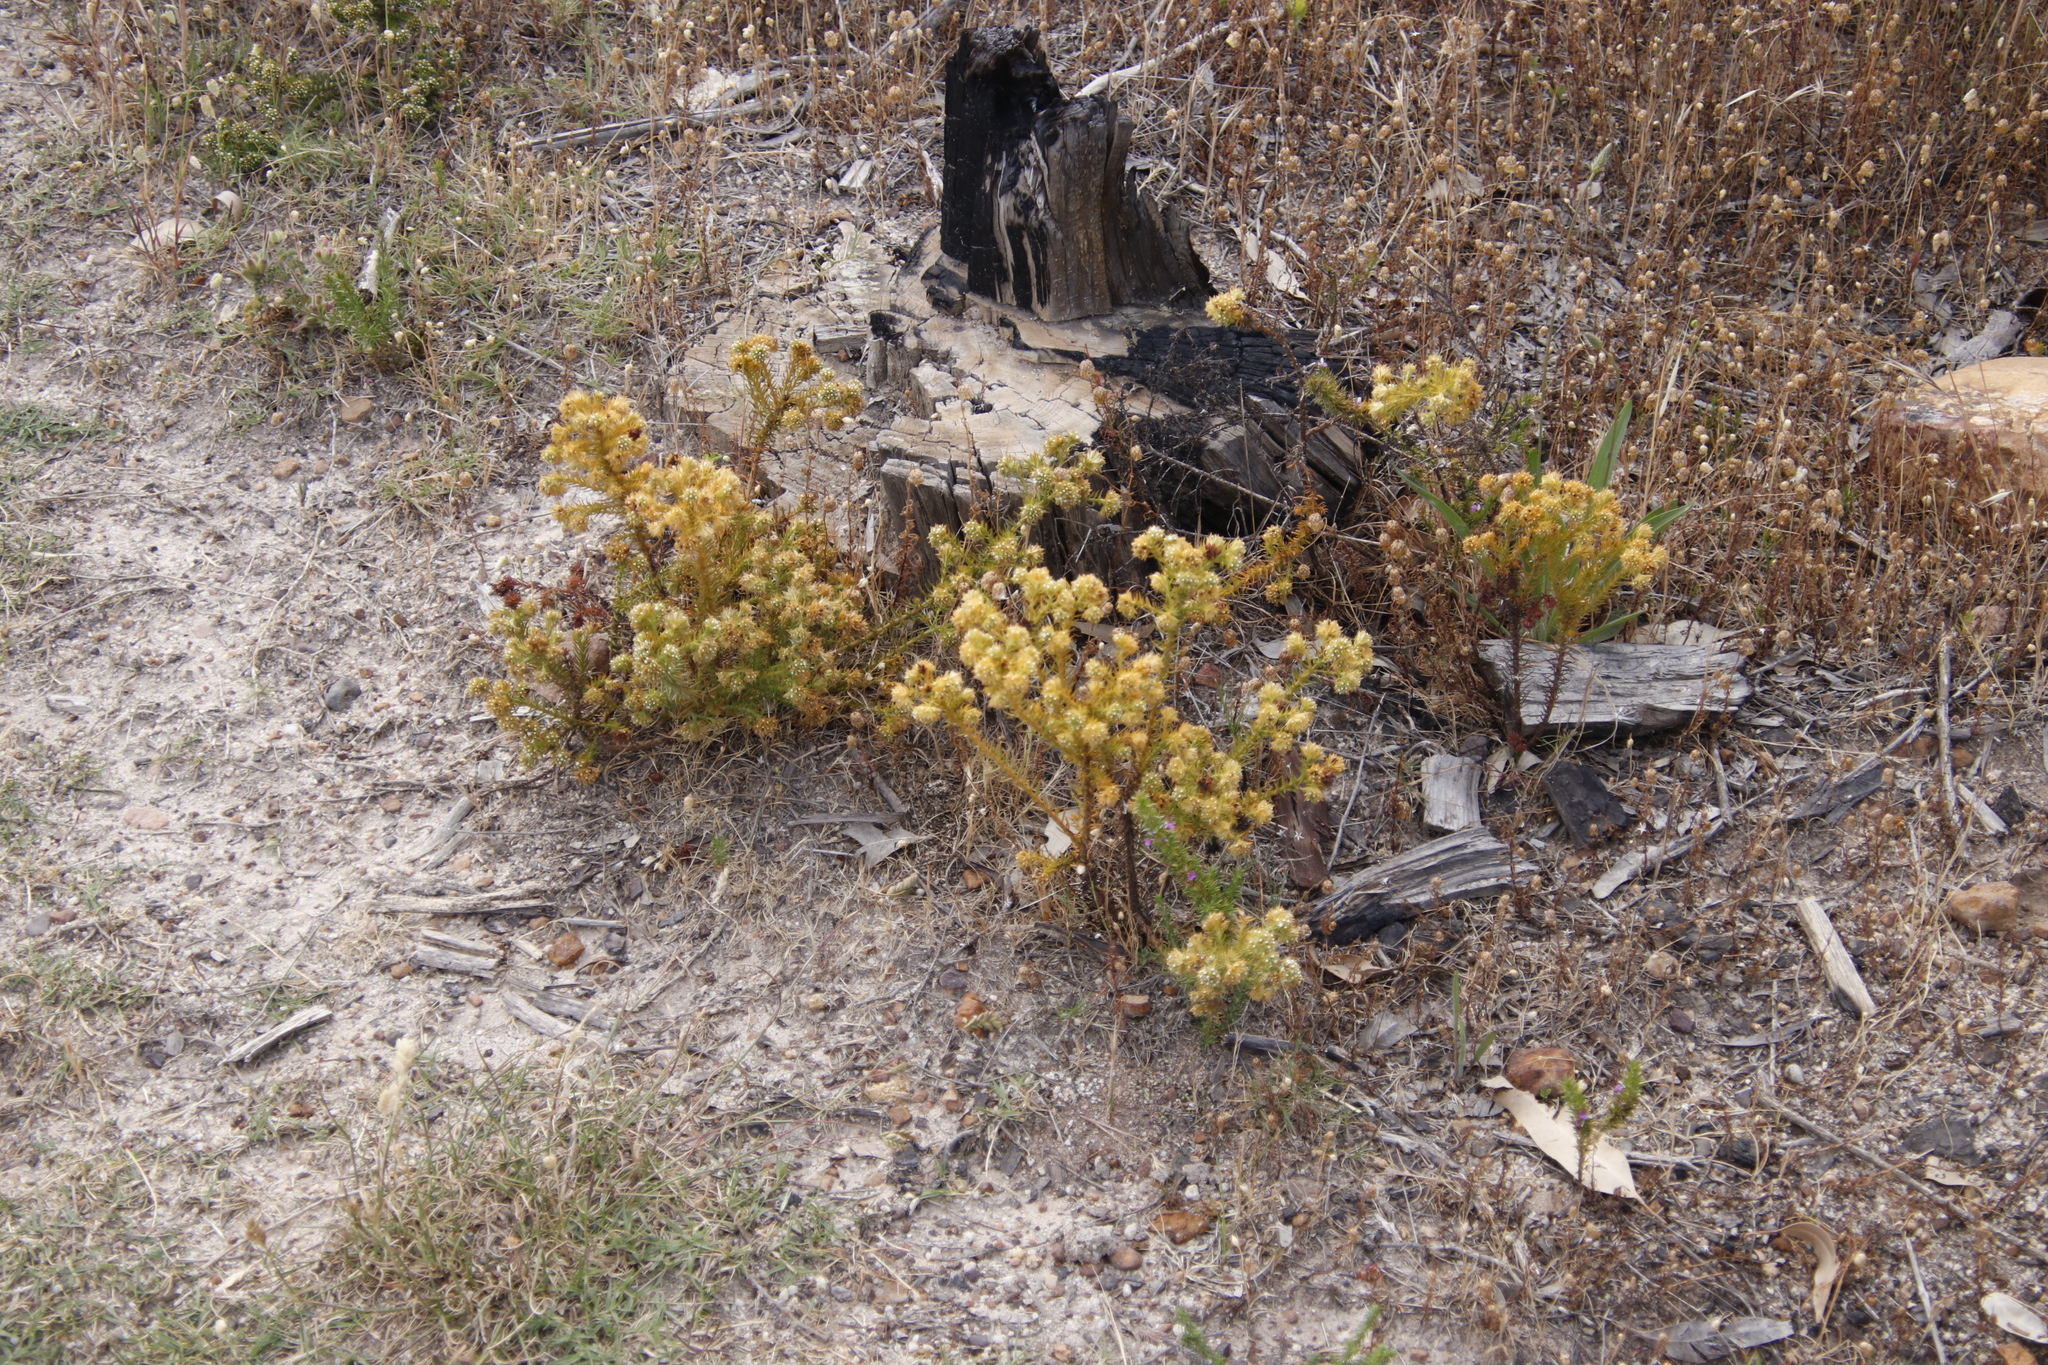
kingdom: Plantae
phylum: Tracheophyta
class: Magnoliopsida
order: Santalales
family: Thesiaceae
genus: Thesium
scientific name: Thesium scabrum
